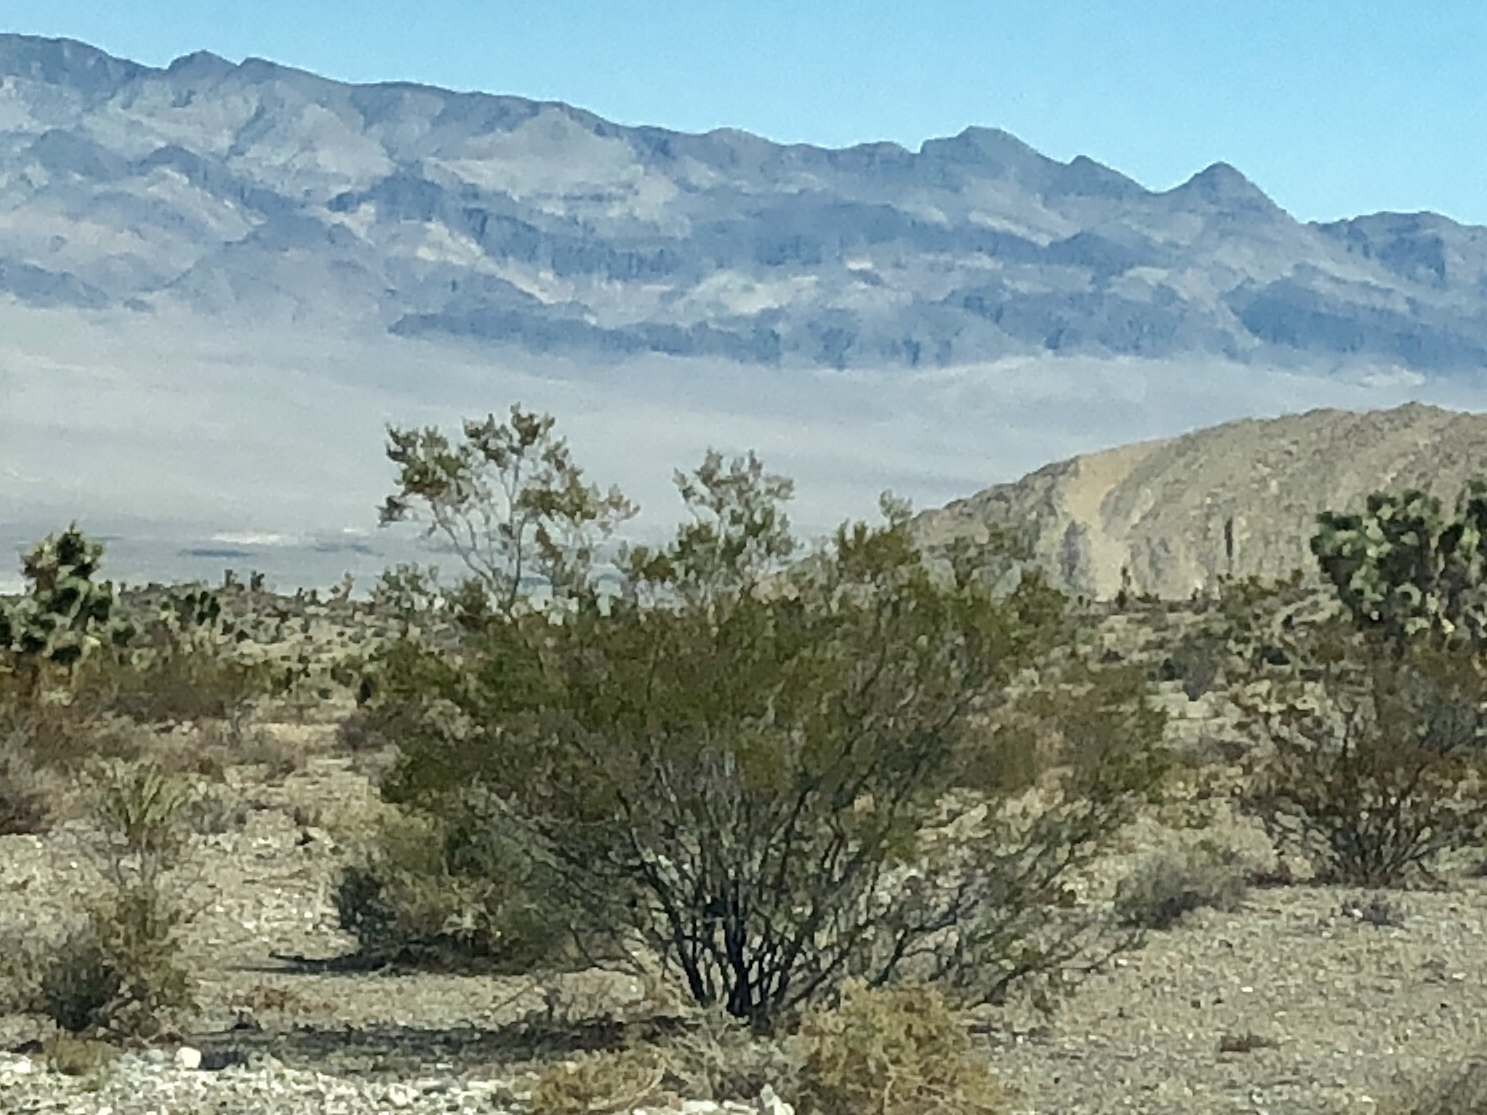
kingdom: Plantae
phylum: Tracheophyta
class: Magnoliopsida
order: Zygophyllales
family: Zygophyllaceae
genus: Larrea
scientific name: Larrea tridentata
